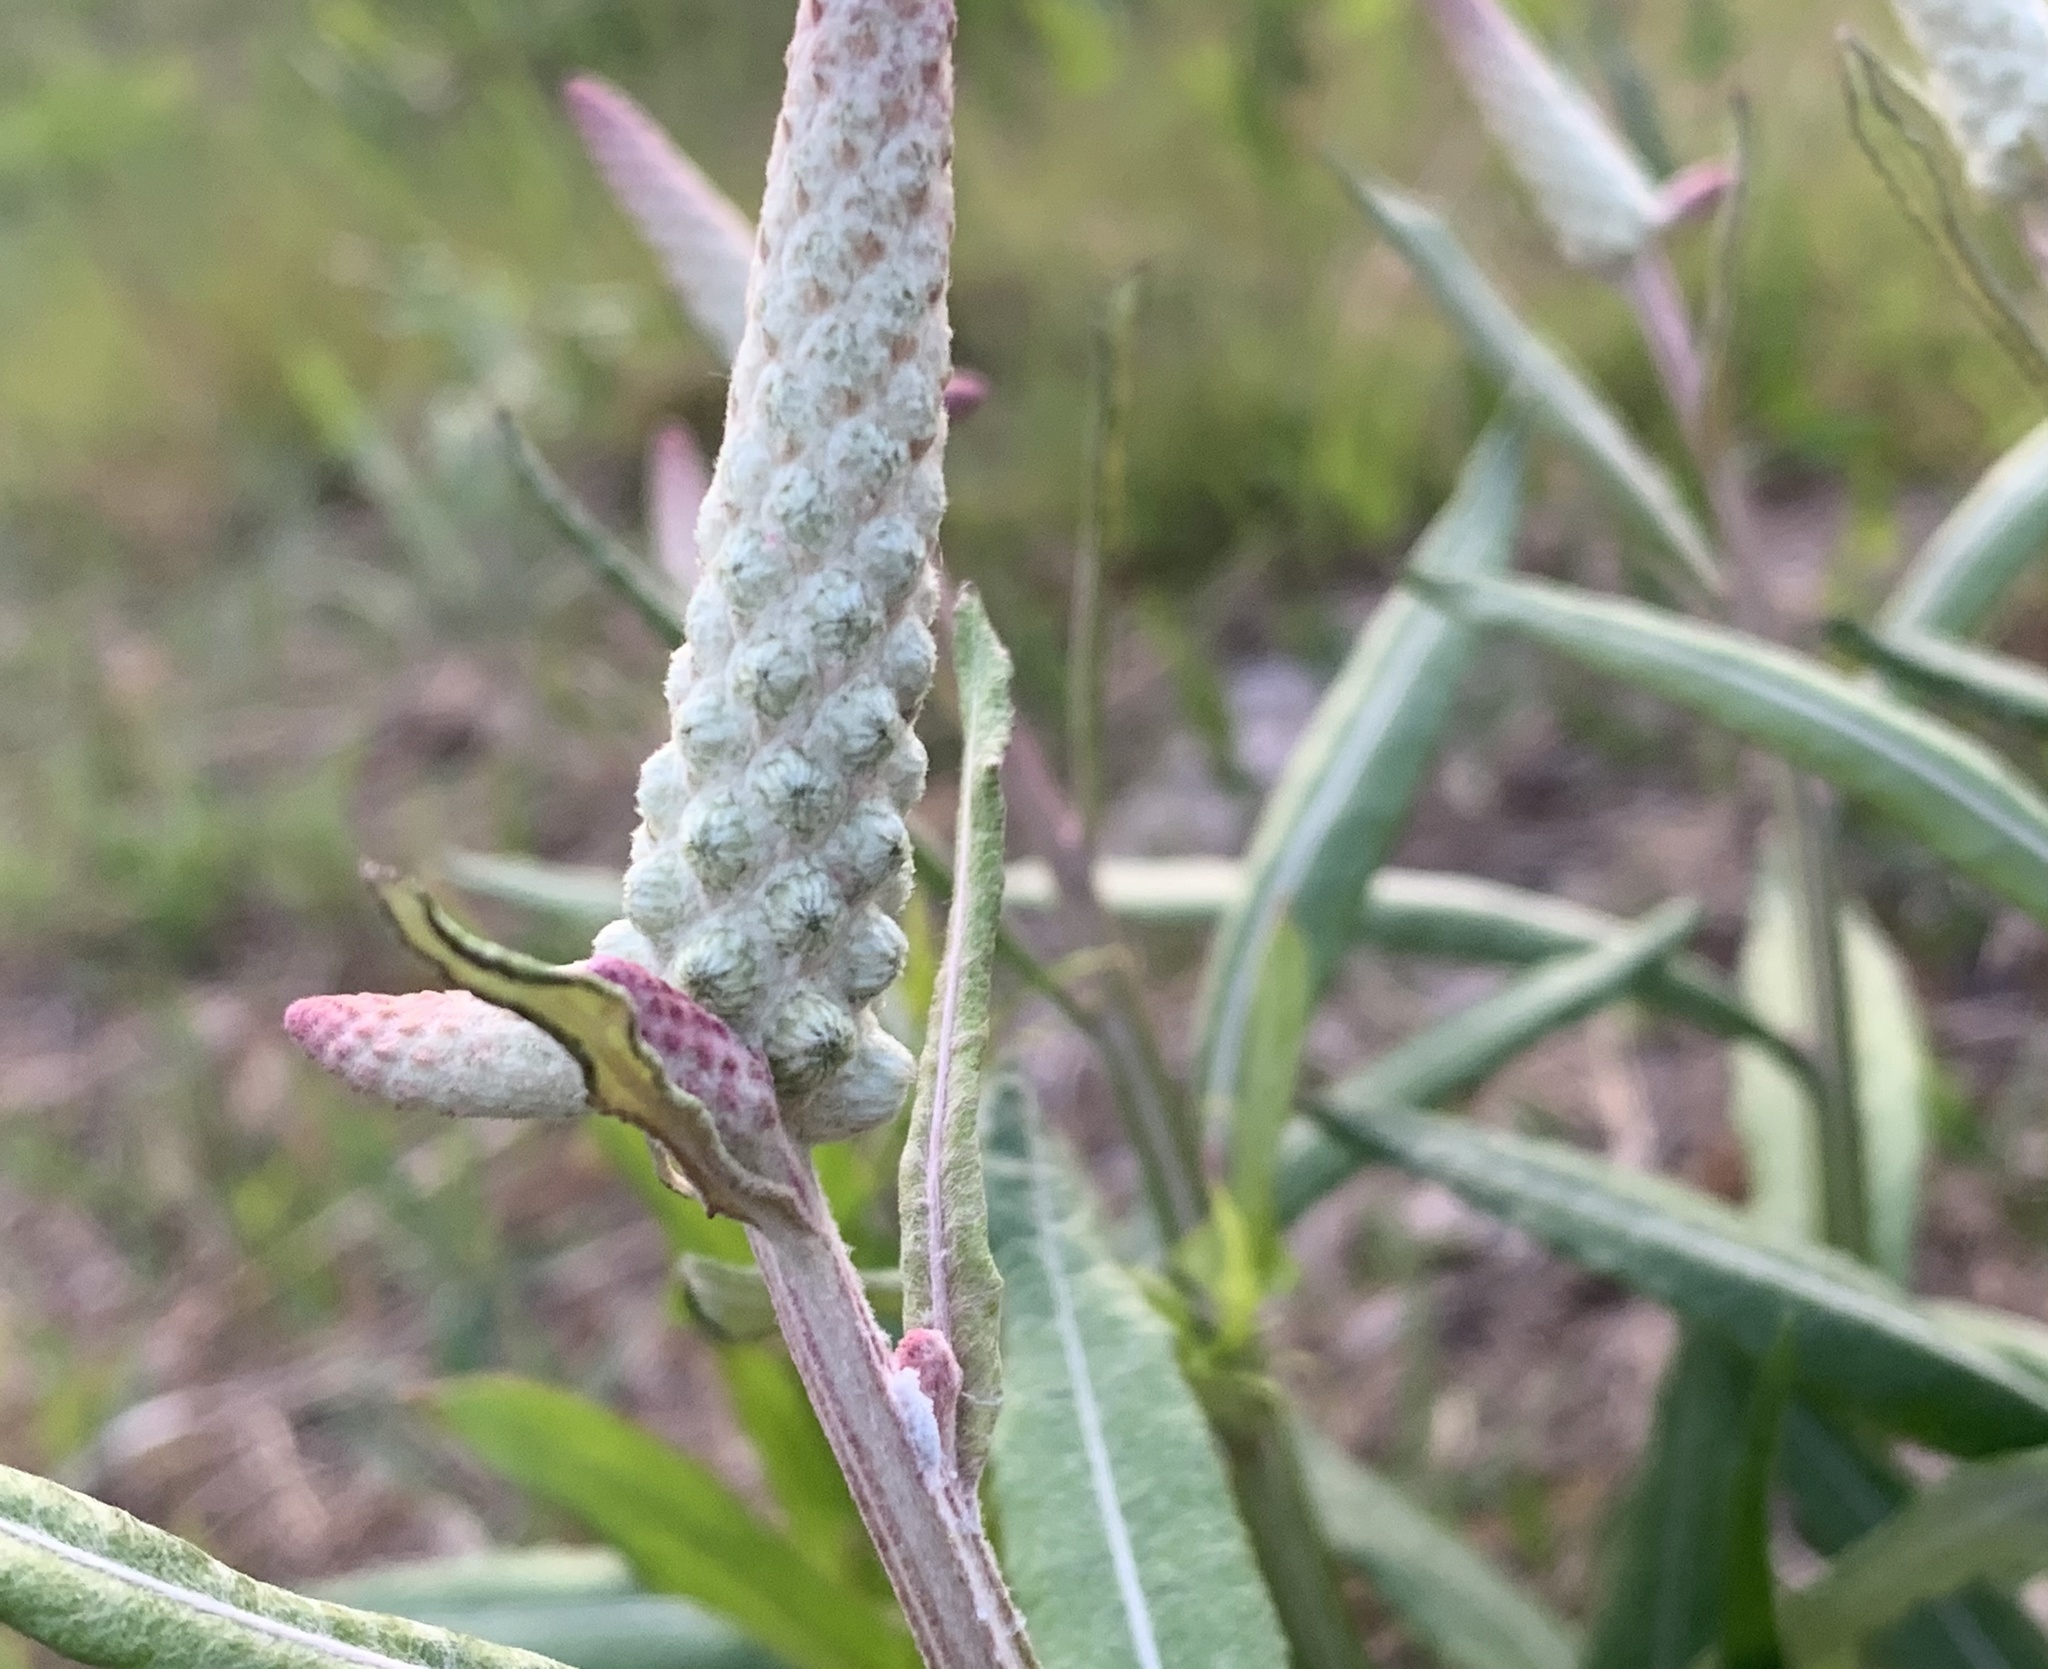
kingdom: Plantae
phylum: Tracheophyta
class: Magnoliopsida
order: Asterales
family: Asteraceae
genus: Pterocaulon
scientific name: Pterocaulon pycnostachyum
